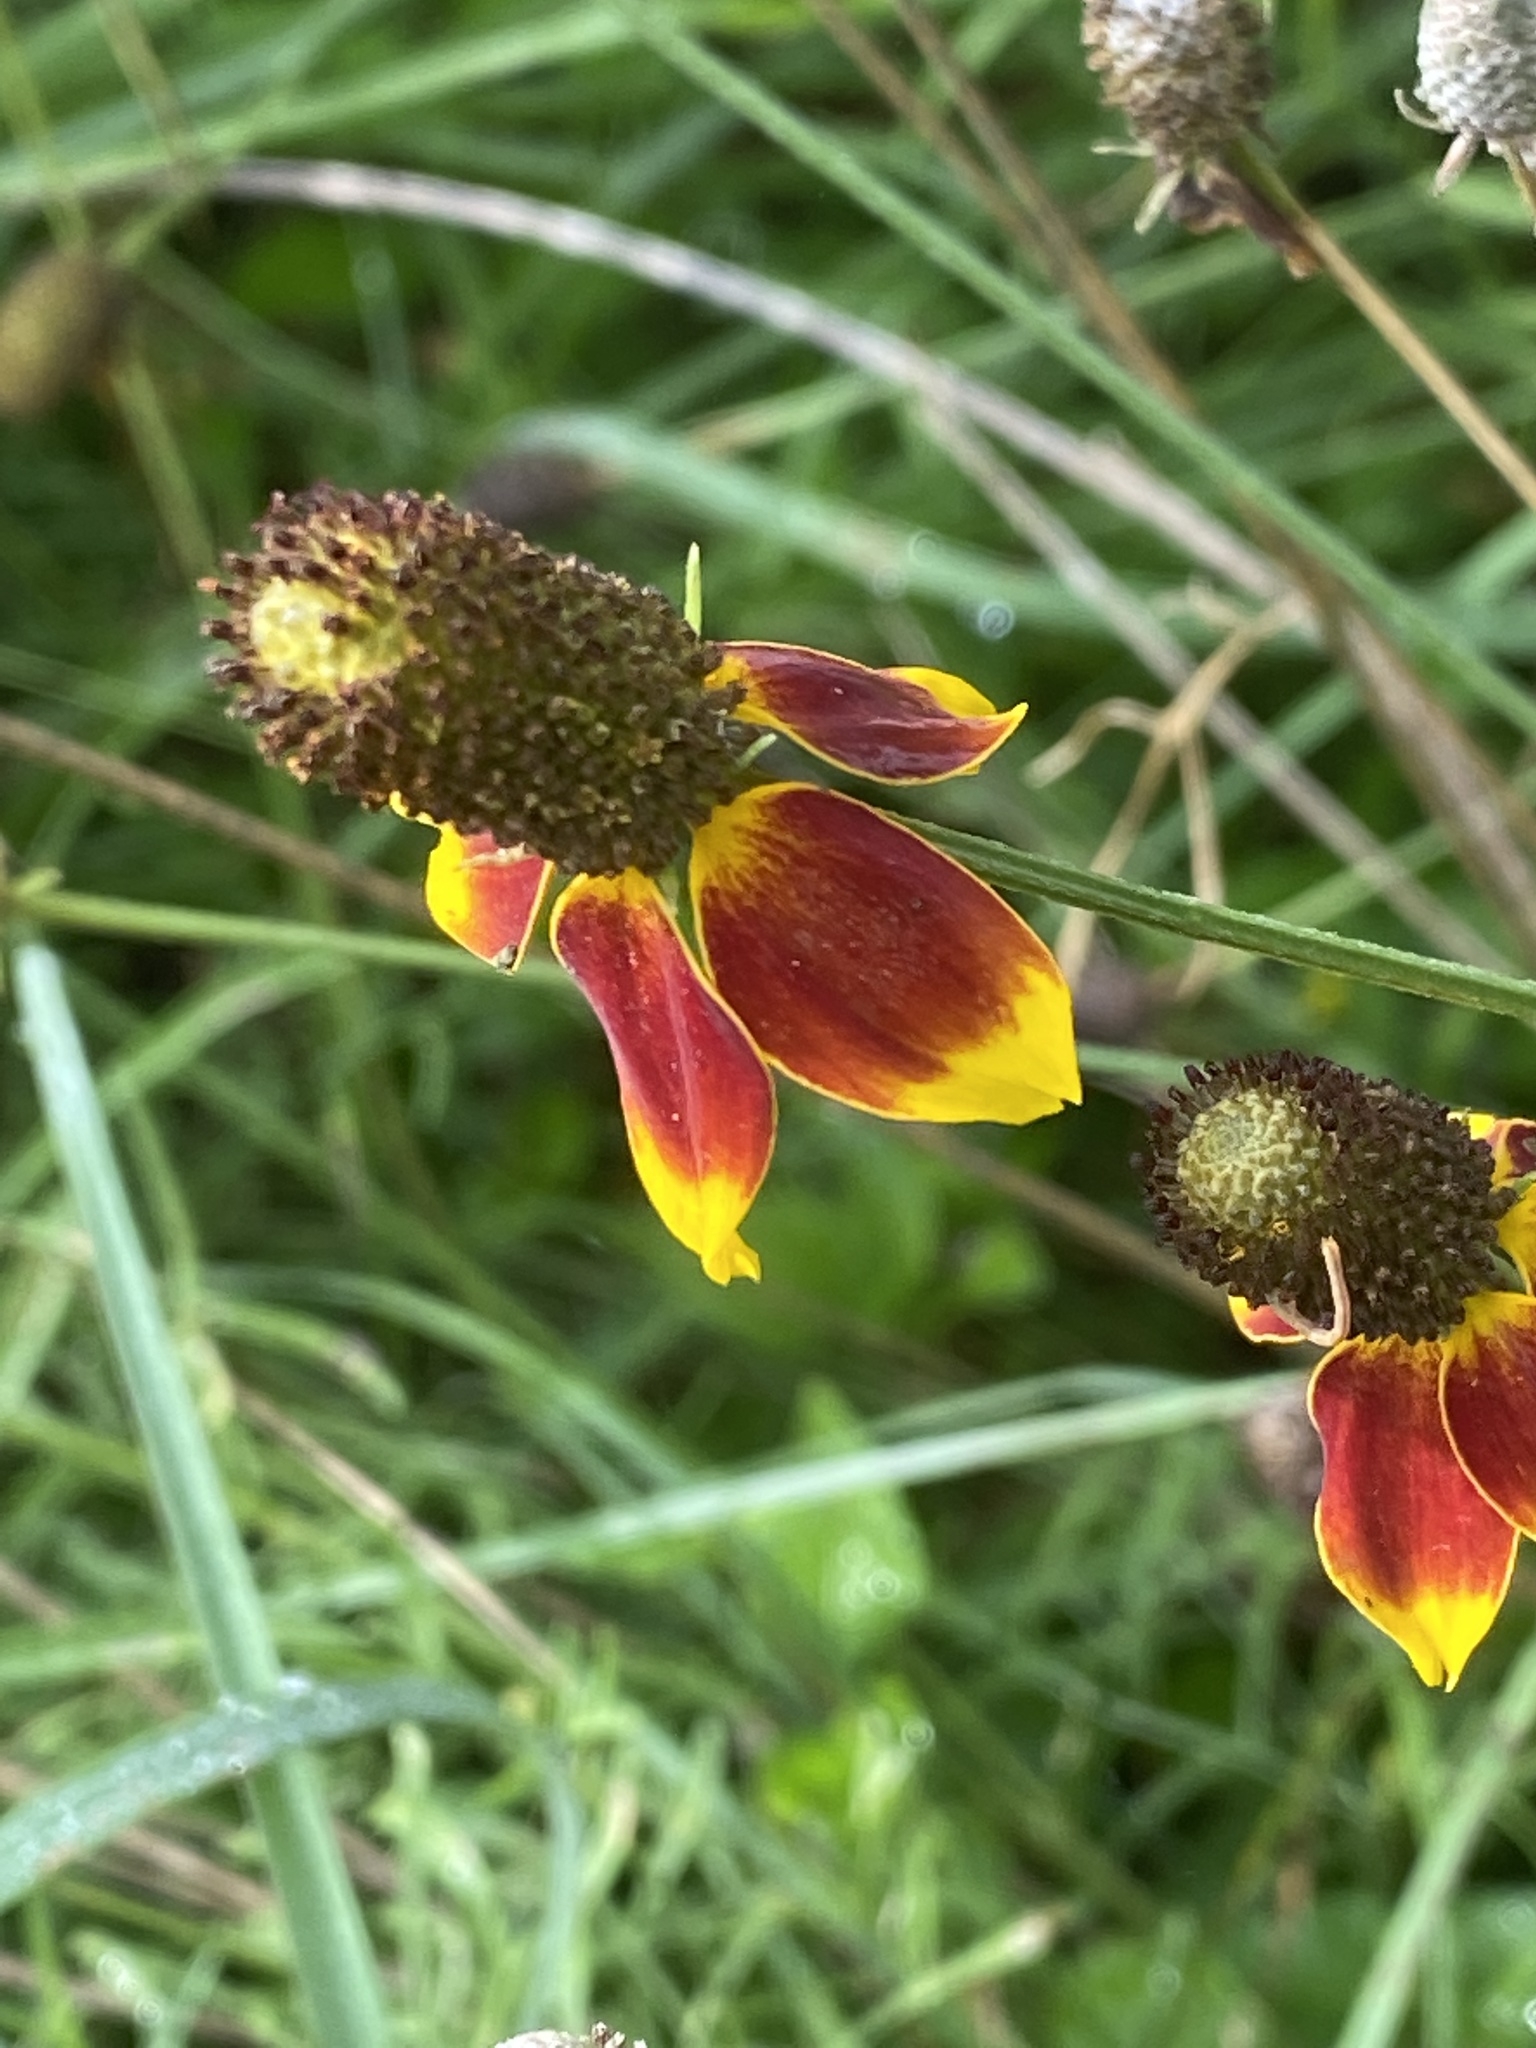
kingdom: Plantae
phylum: Tracheophyta
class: Magnoliopsida
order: Asterales
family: Asteraceae
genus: Ratibida
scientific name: Ratibida columnifera
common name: Prairie coneflower
